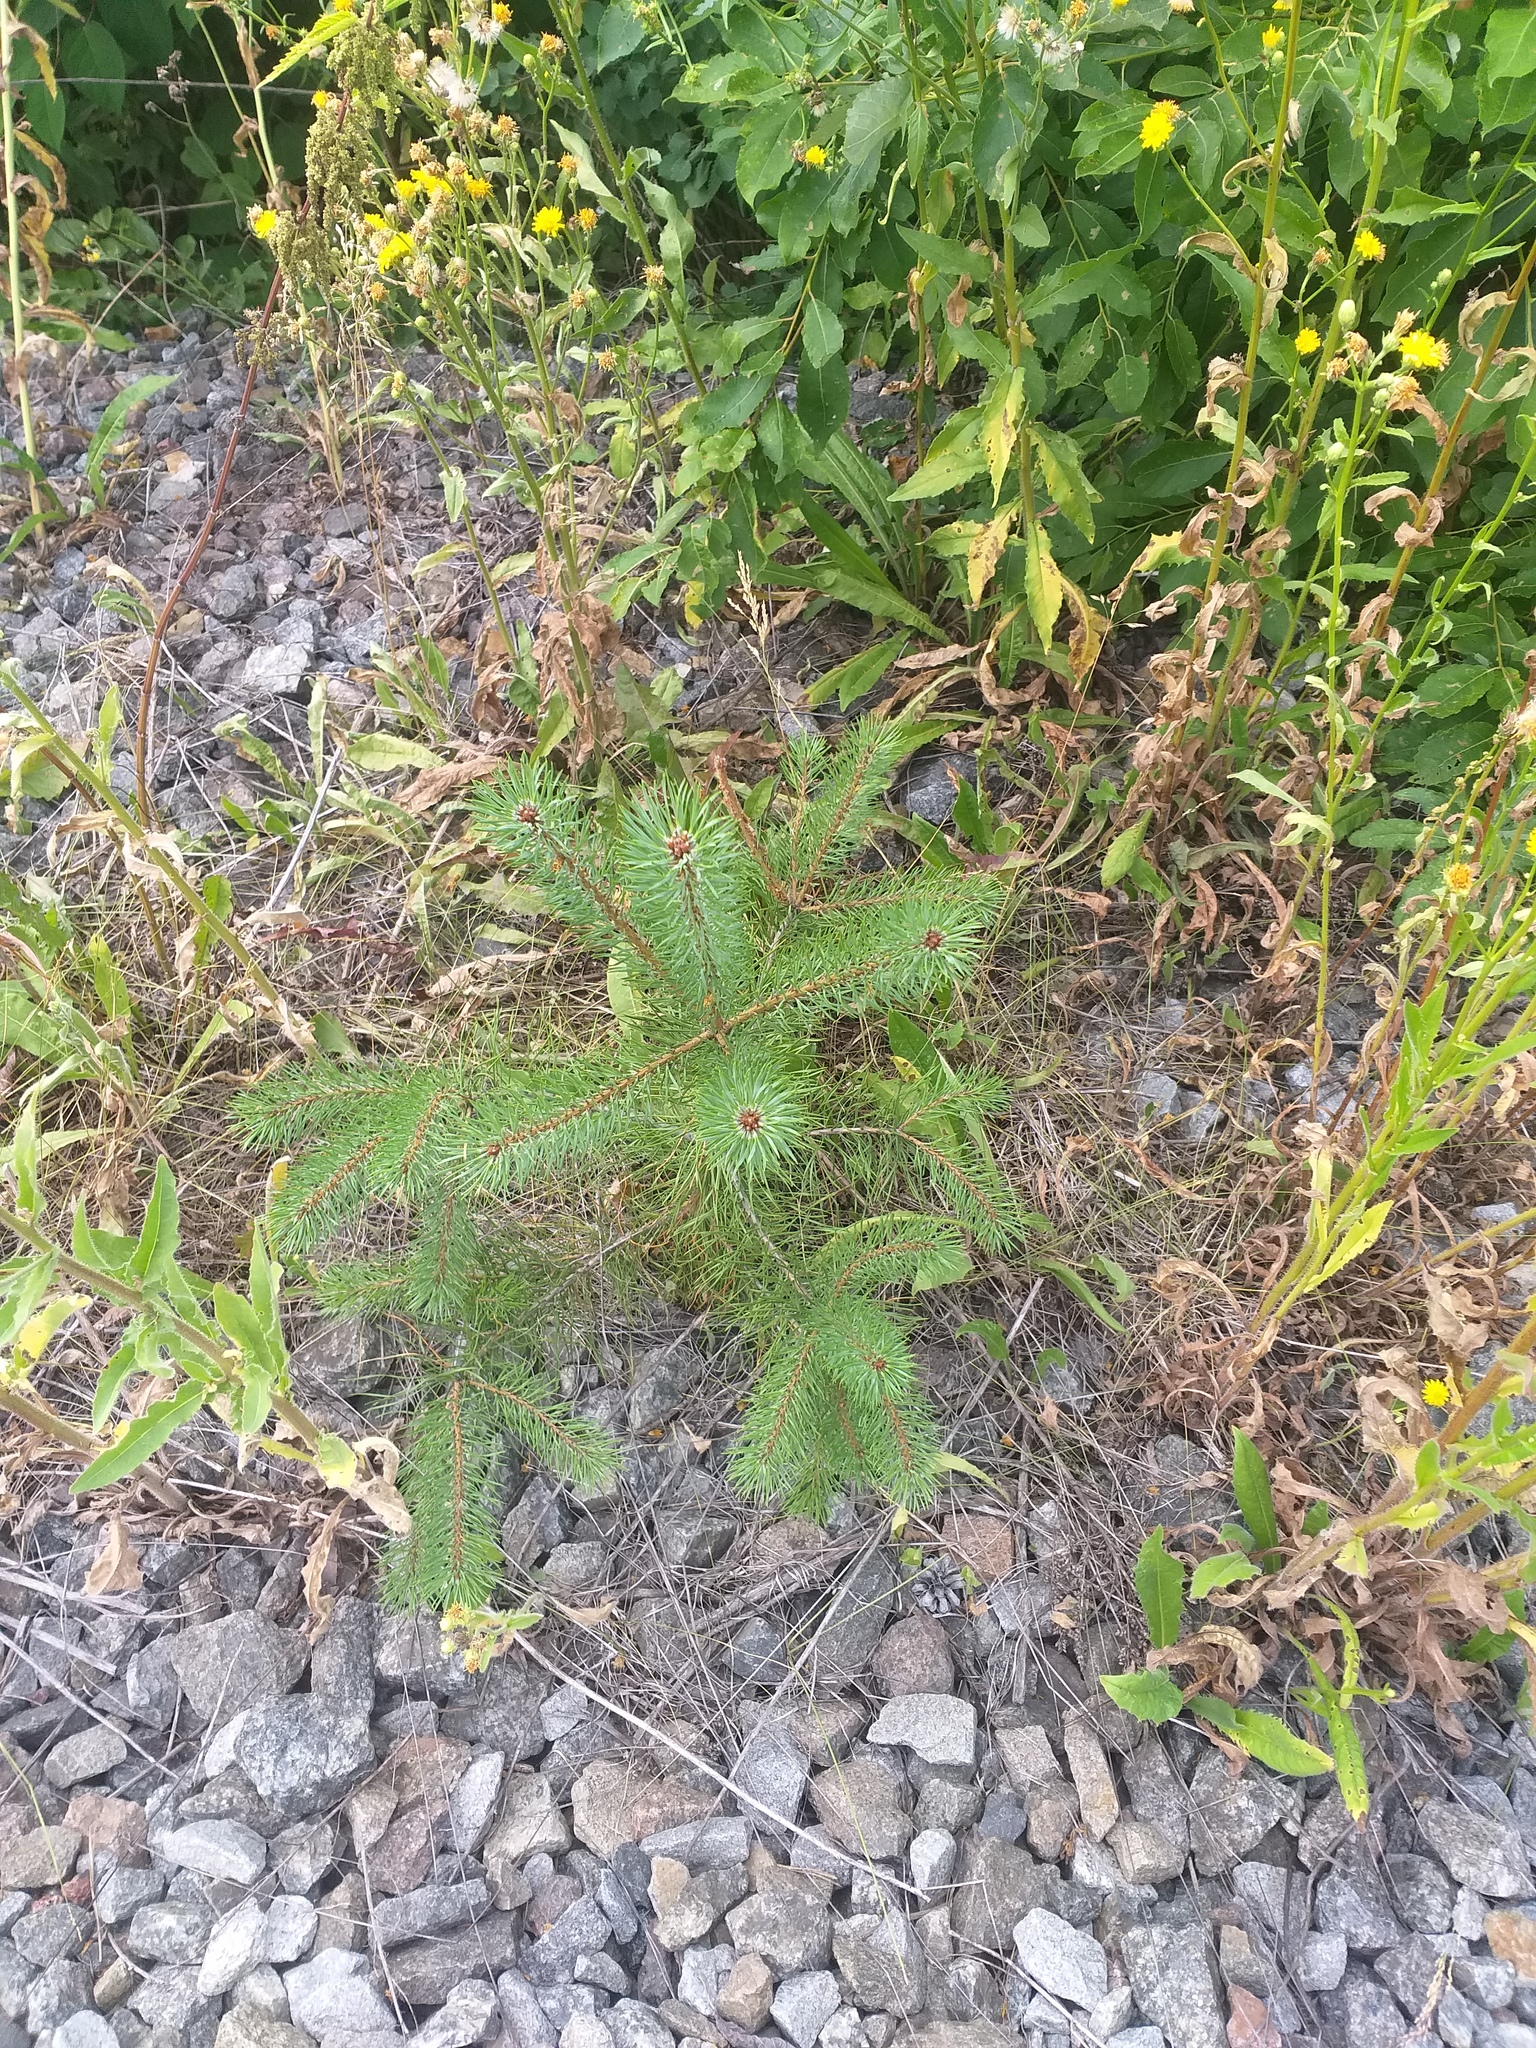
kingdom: Plantae
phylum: Tracheophyta
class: Pinopsida
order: Pinales
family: Pinaceae
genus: Pinus
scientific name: Pinus sylvestris
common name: Scots pine
